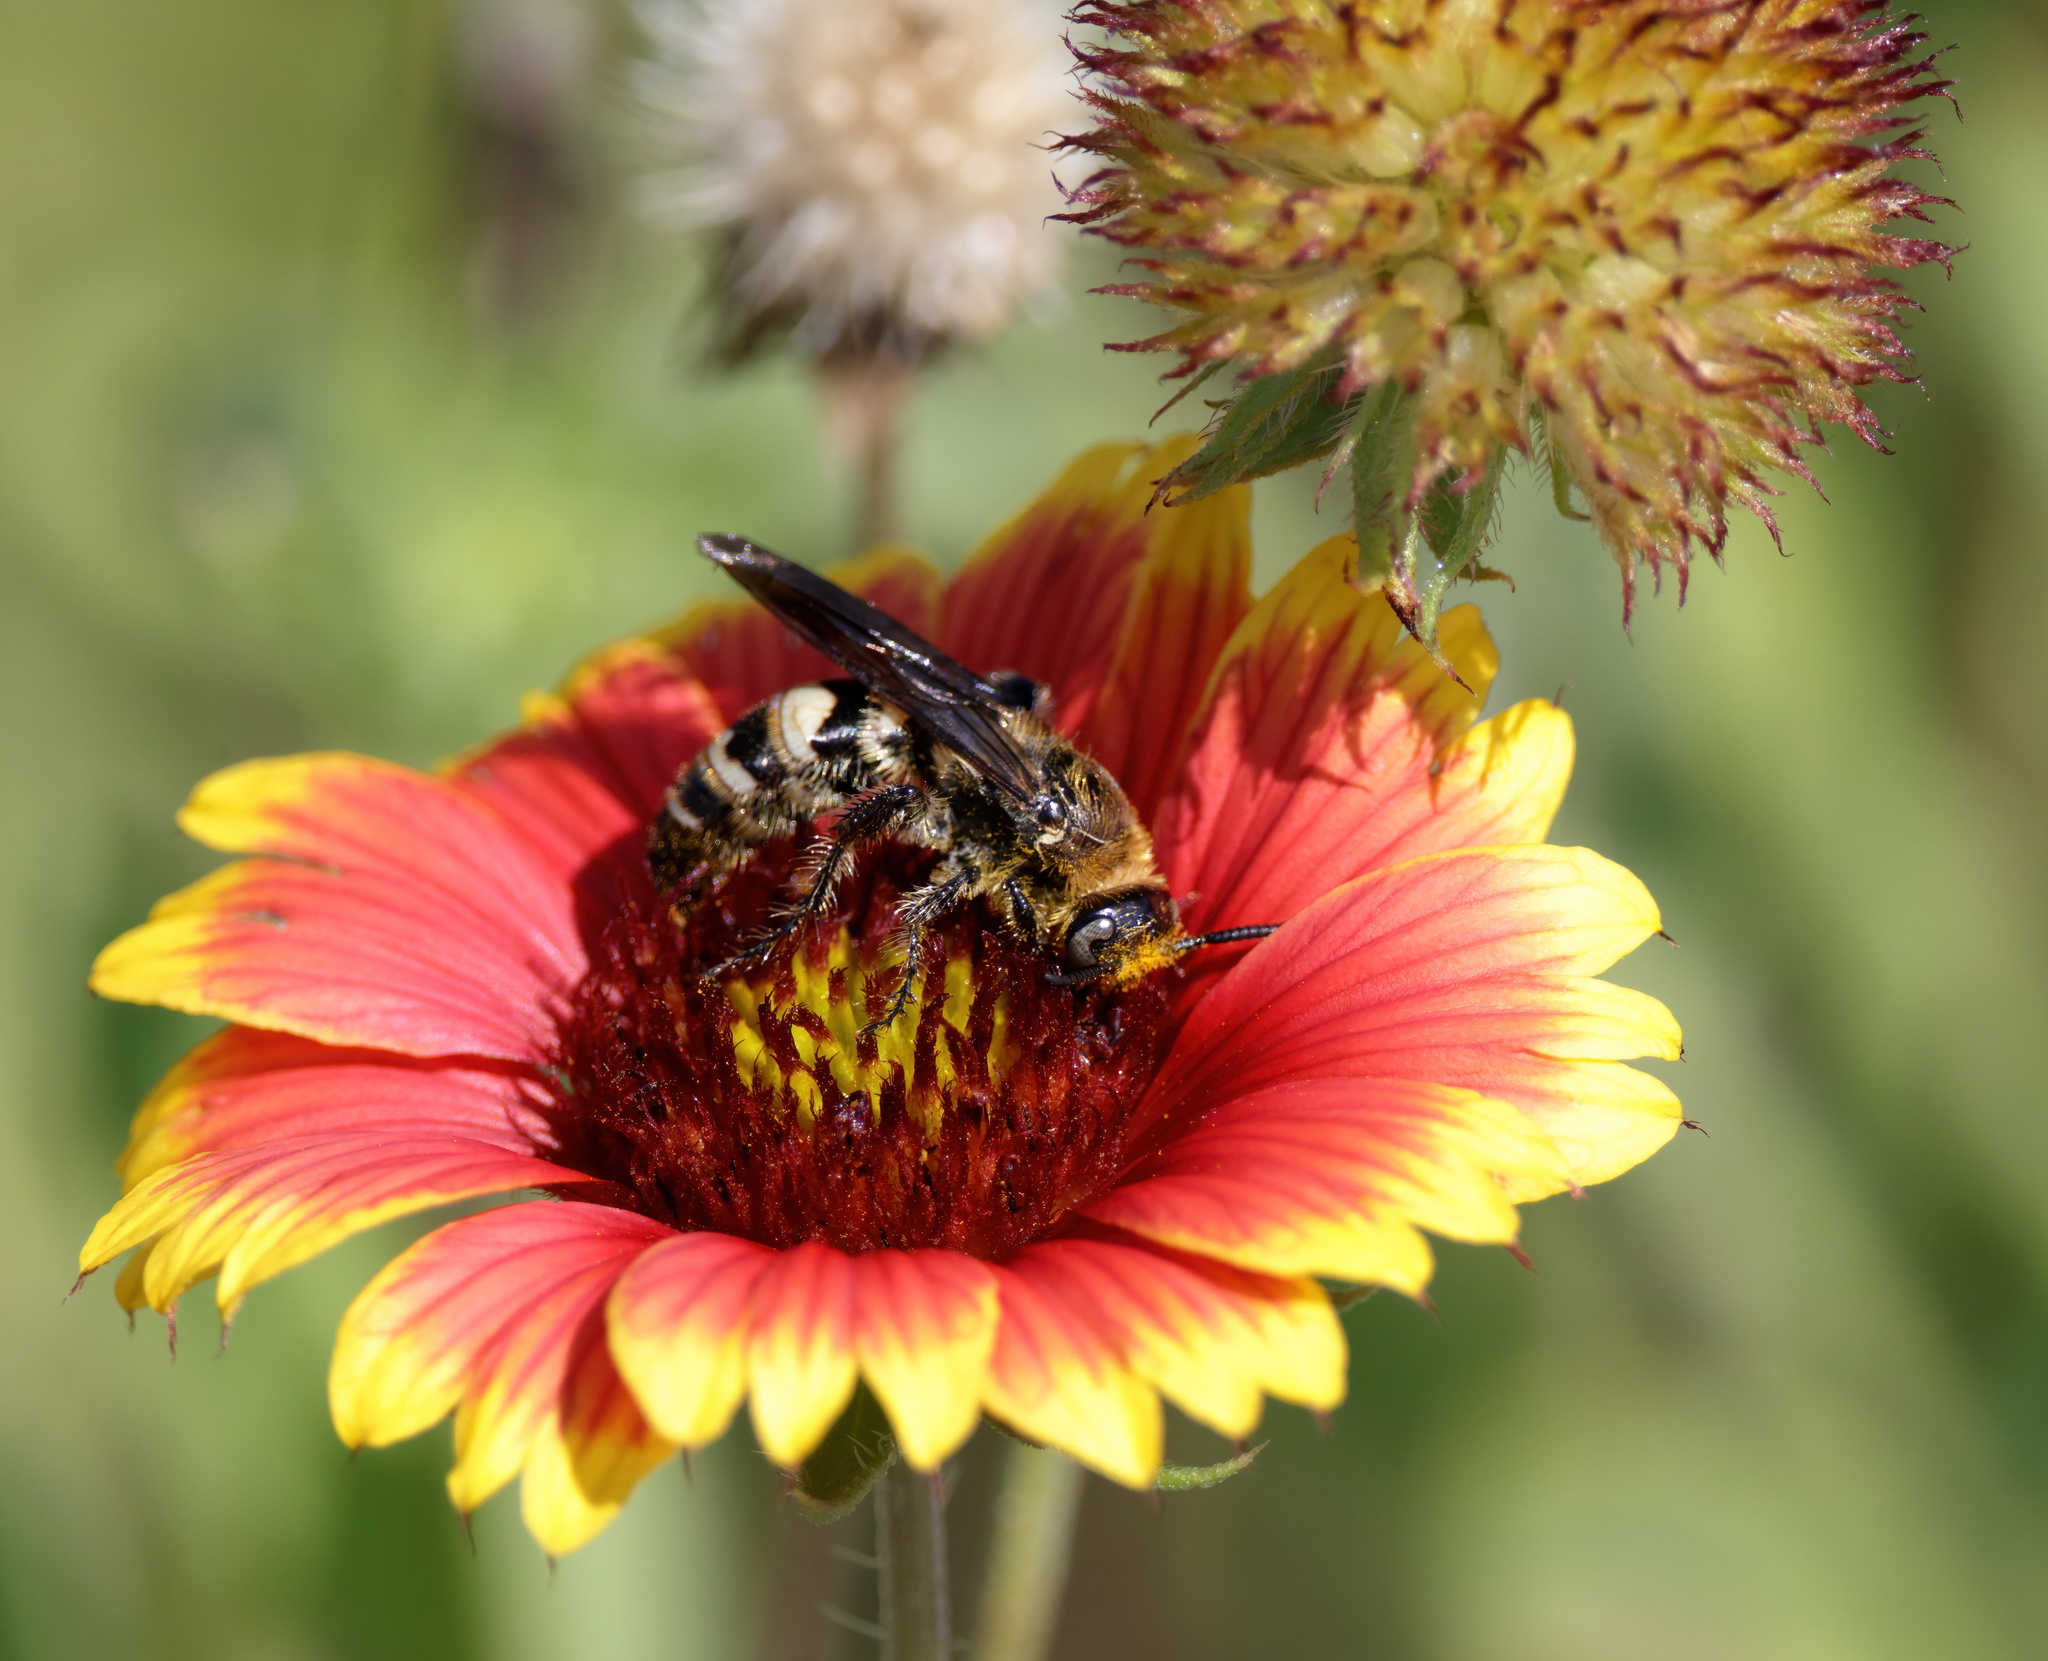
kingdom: Animalia
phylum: Arthropoda
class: Insecta
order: Hymenoptera
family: Scoliidae
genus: Dielis
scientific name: Dielis
